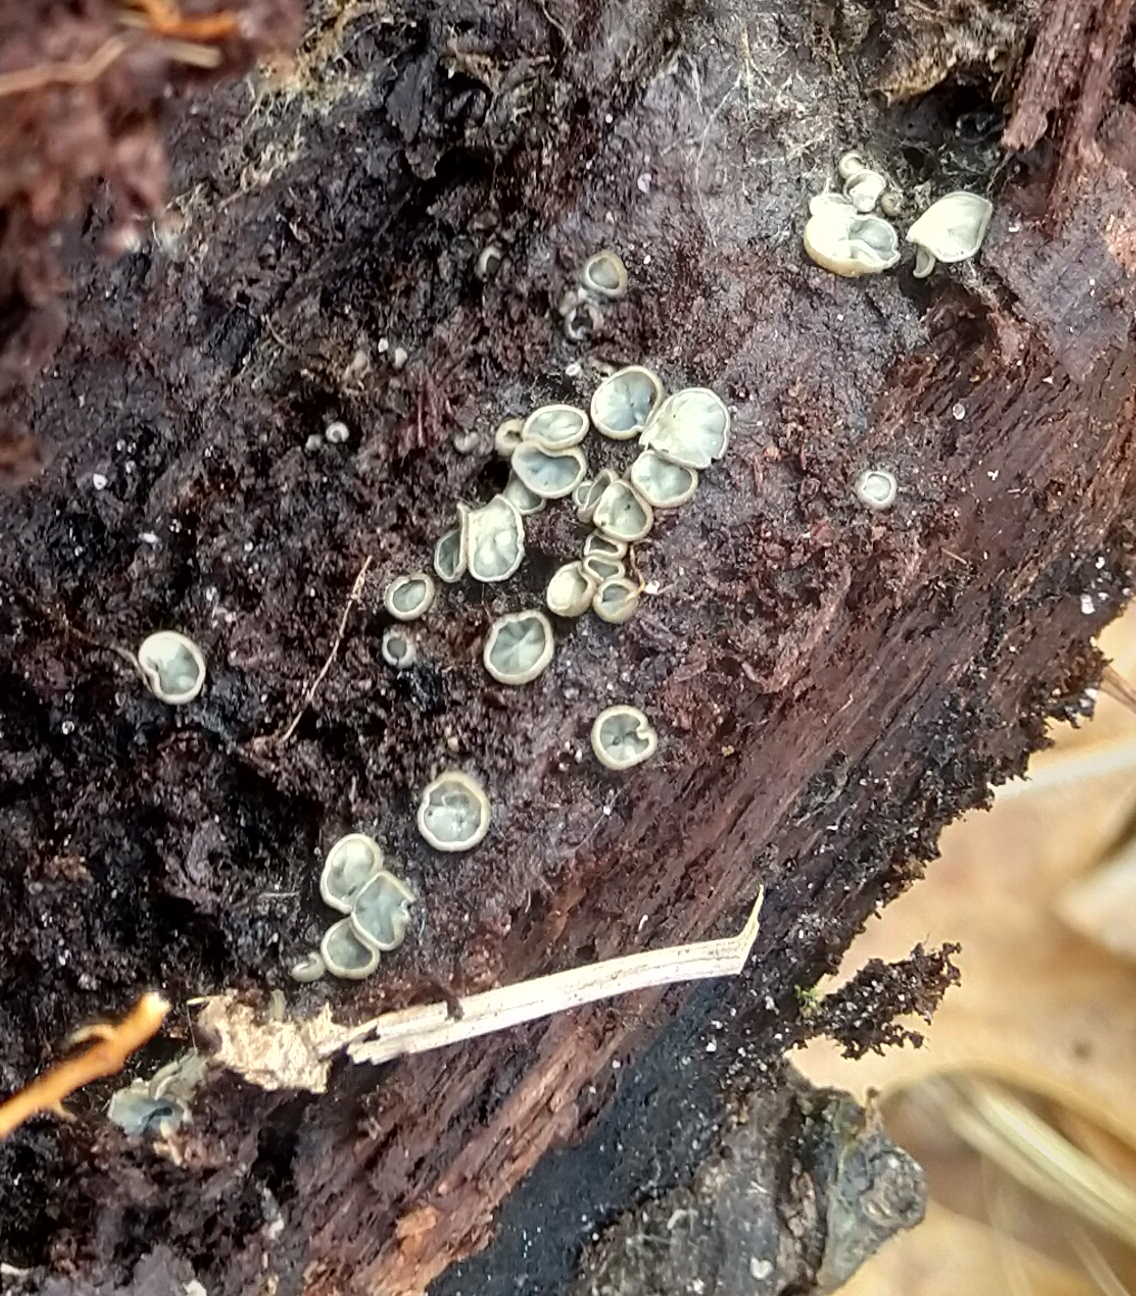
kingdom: Fungi
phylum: Ascomycota
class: Leotiomycetes
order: Helotiales
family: Chlorospleniaceae
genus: Chlorosplenium
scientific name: Chlorosplenium chlora
